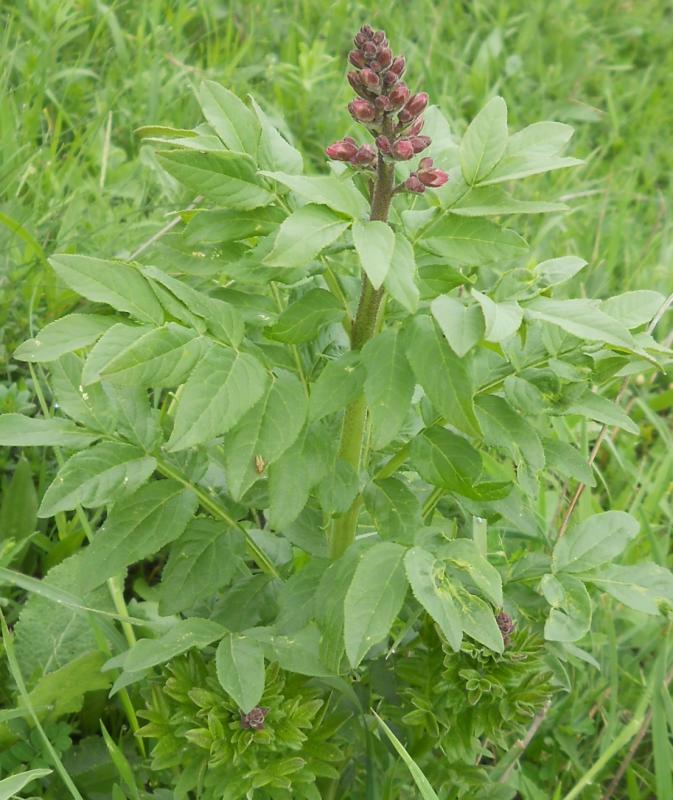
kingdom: Plantae
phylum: Tracheophyta
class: Magnoliopsida
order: Sapindales
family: Rutaceae
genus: Dictamnus
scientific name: Dictamnus albus
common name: Gasplant
